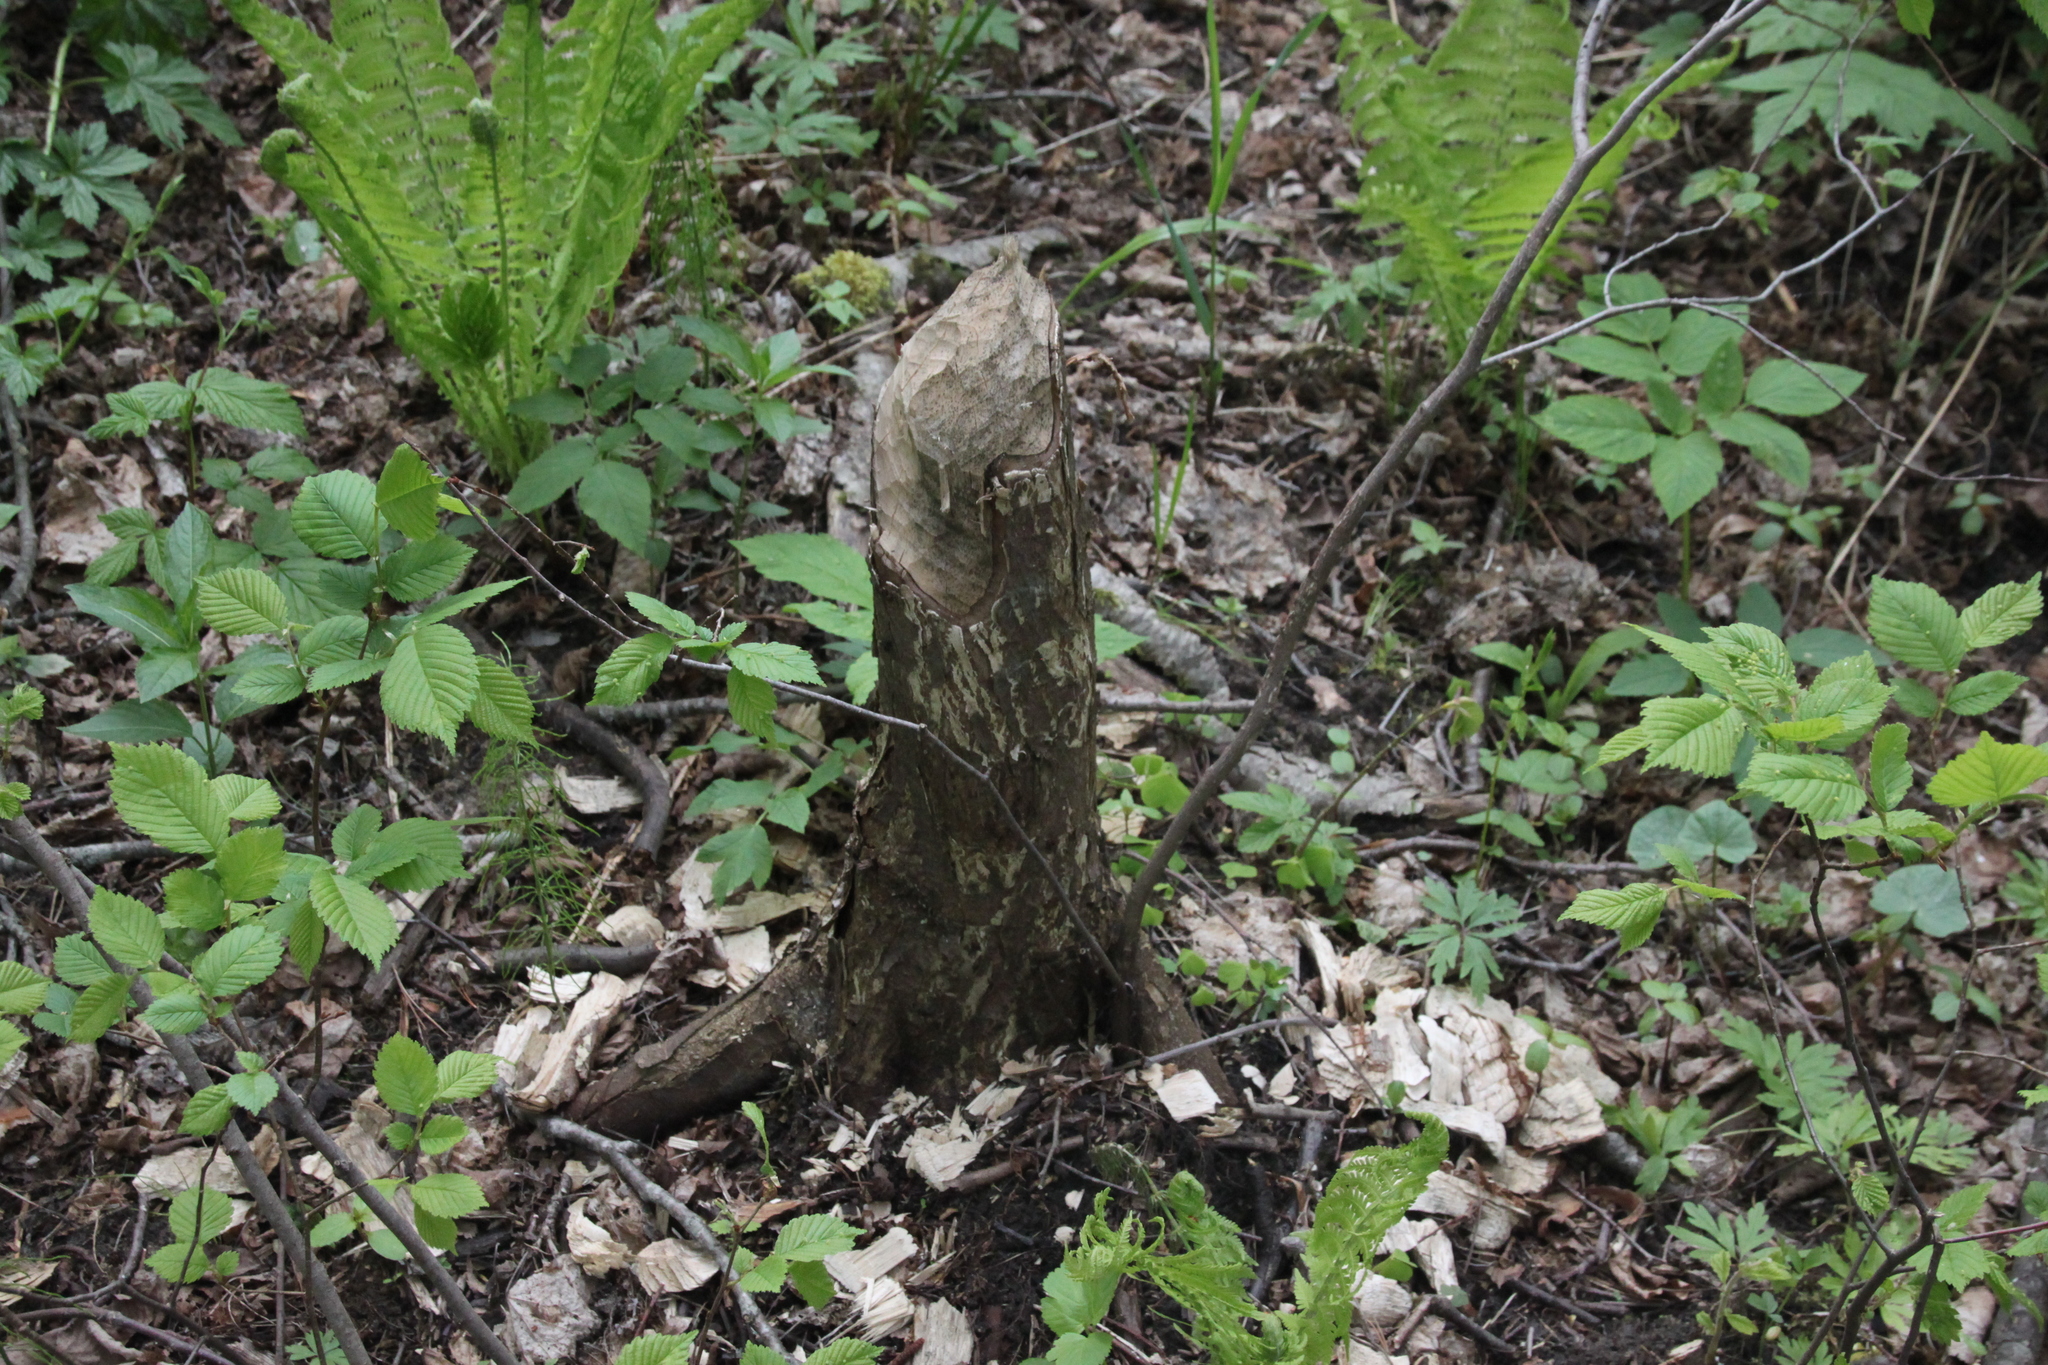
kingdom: Animalia
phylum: Chordata
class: Mammalia
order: Rodentia
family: Castoridae
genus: Castor
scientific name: Castor fiber
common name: Eurasian beaver
